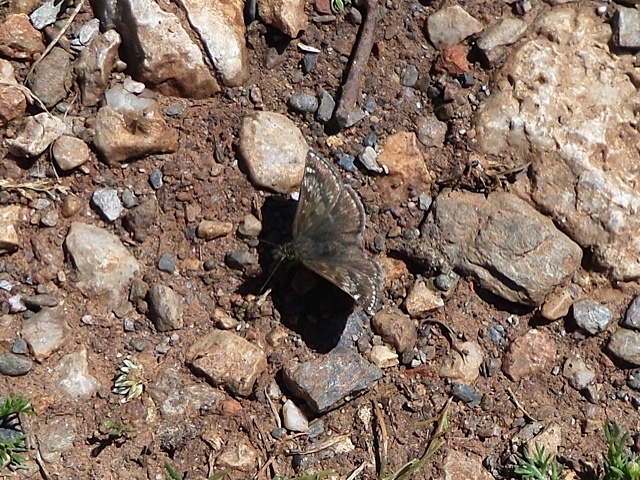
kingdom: Animalia
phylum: Arthropoda
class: Insecta
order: Lepidoptera
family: Hesperiidae
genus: Erynnis
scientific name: Erynnis tages
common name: Dingy skipper
